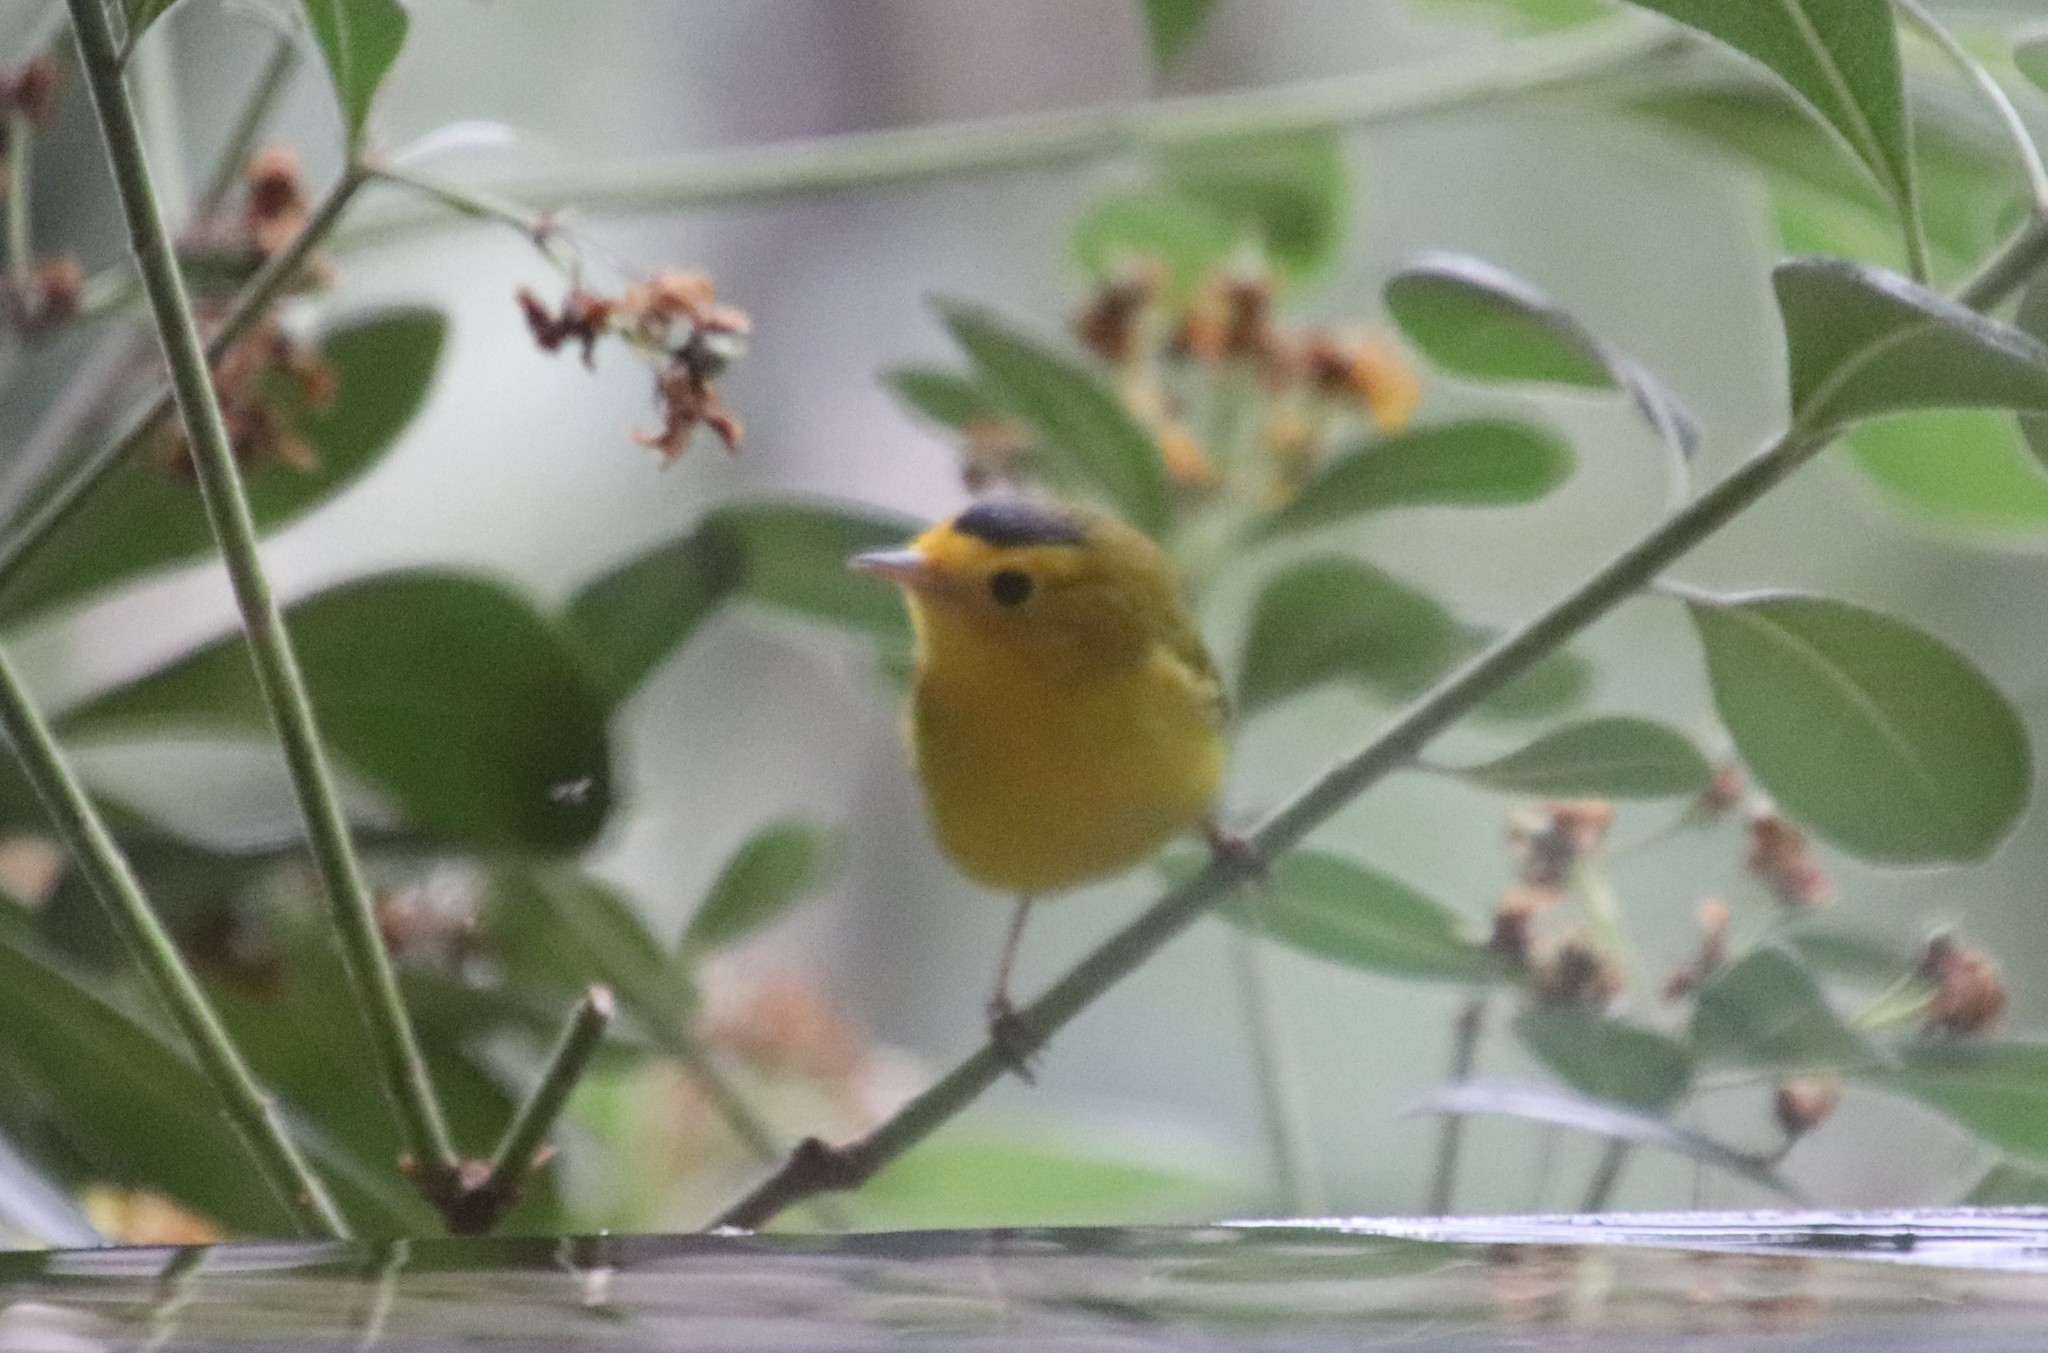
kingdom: Animalia
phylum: Chordata
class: Aves
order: Passeriformes
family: Parulidae
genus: Cardellina
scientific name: Cardellina pusilla
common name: Wilson's warbler
